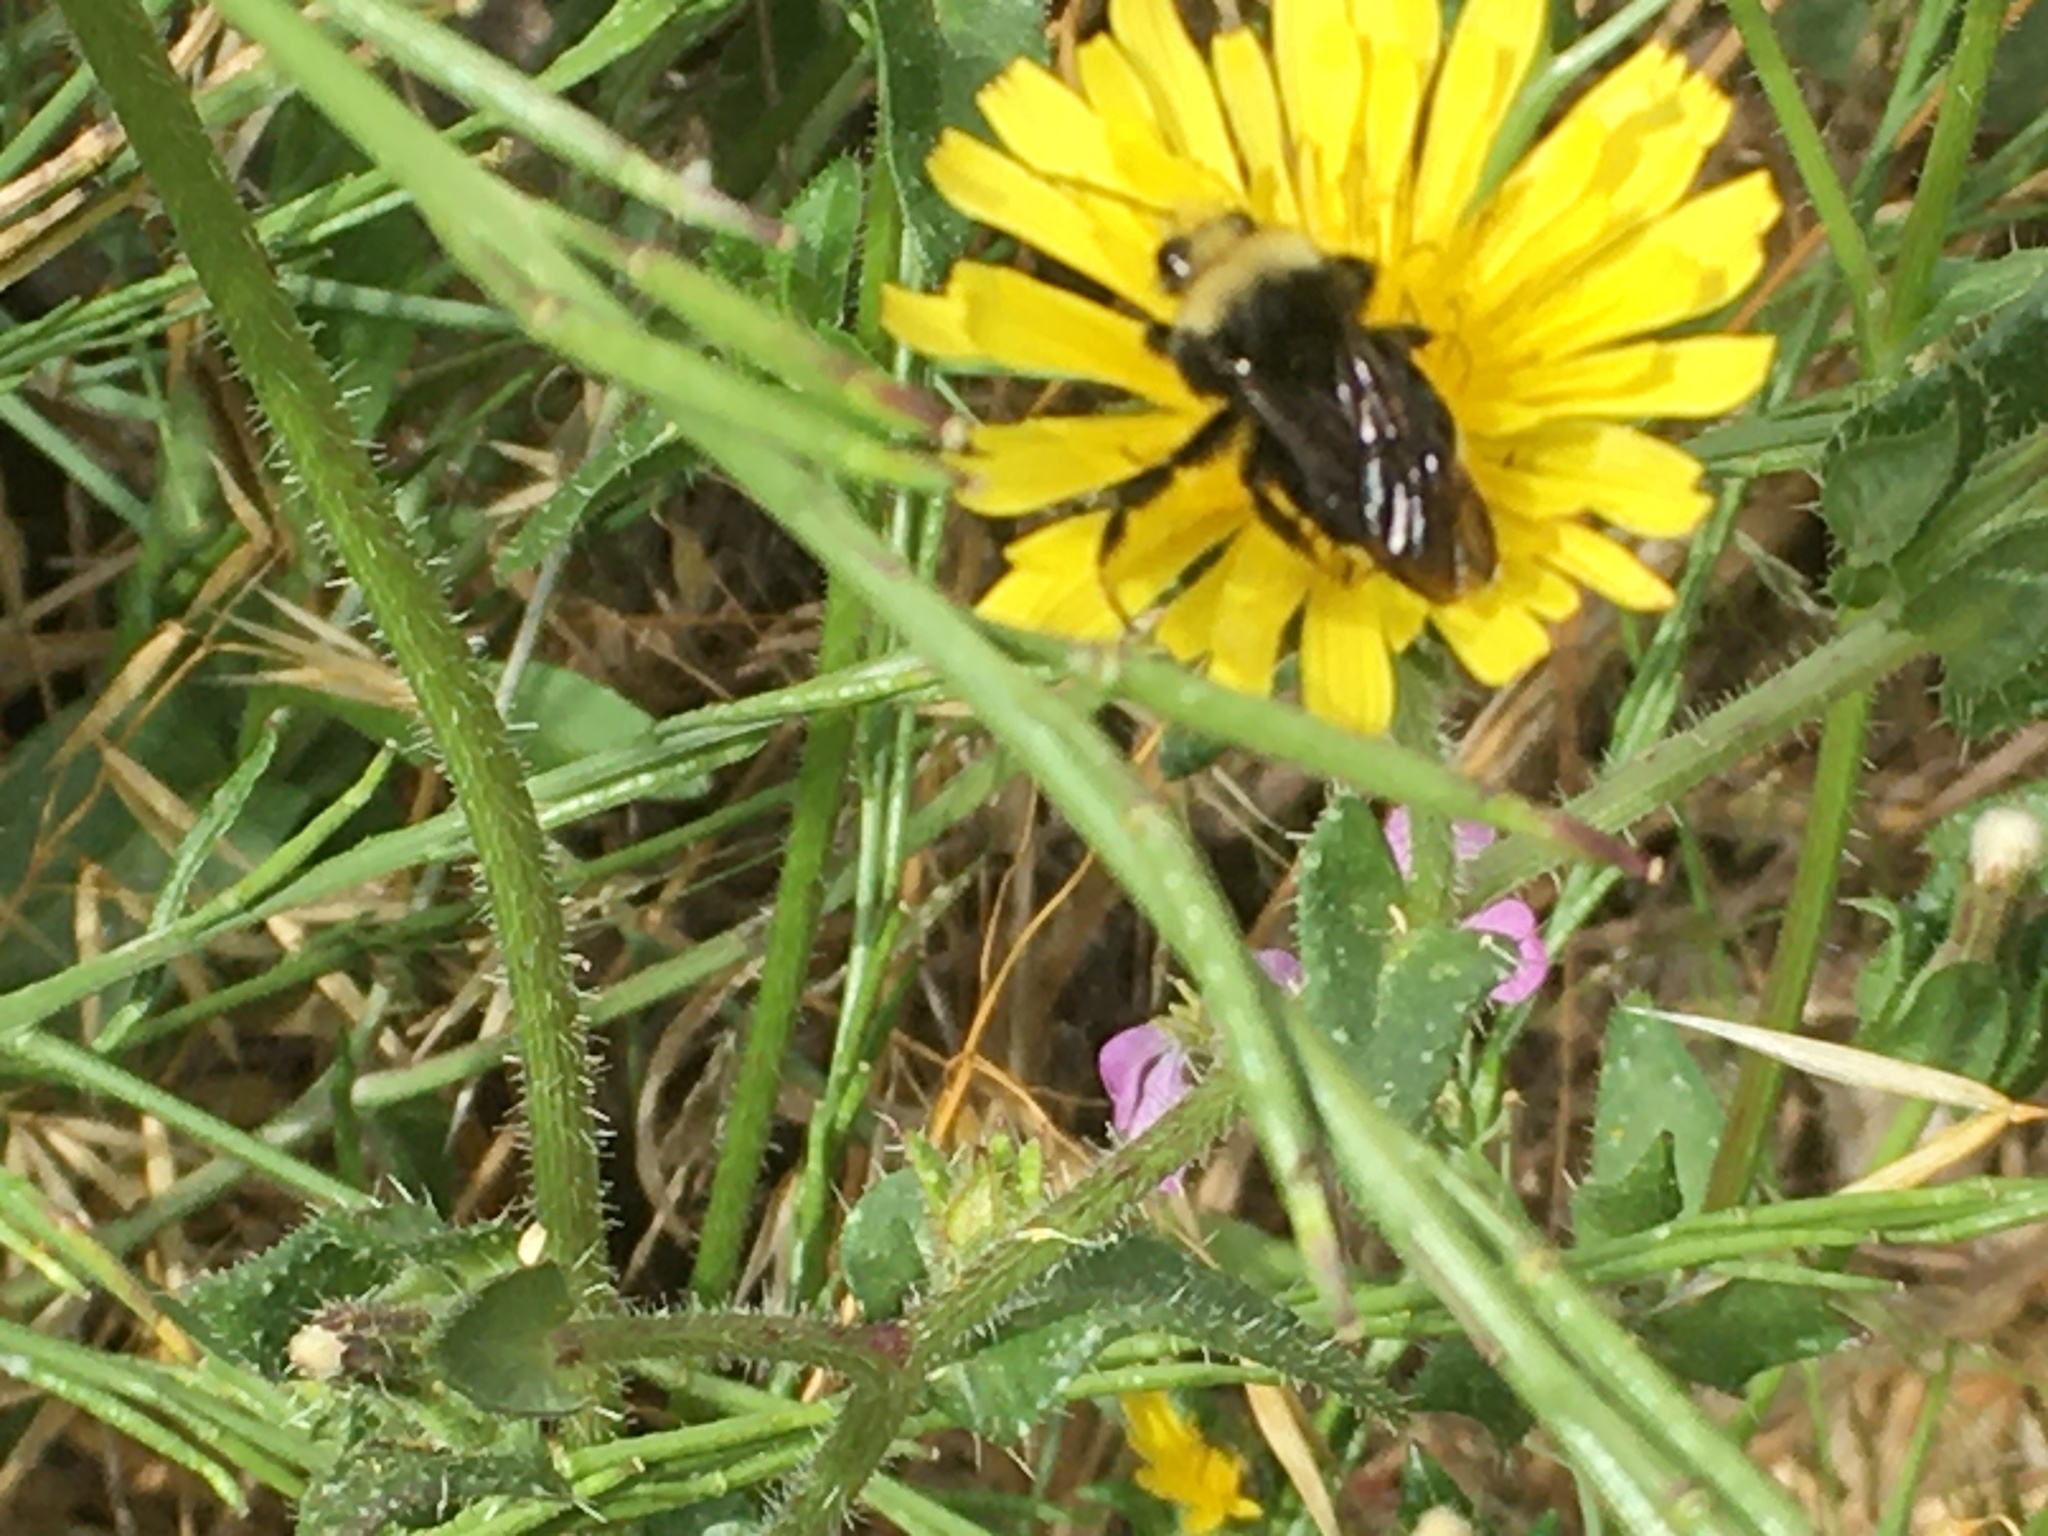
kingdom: Animalia
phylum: Arthropoda
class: Insecta
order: Hymenoptera
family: Apidae
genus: Bombus
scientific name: Bombus vosnesenskii
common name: Vosnesensky bumble bee
